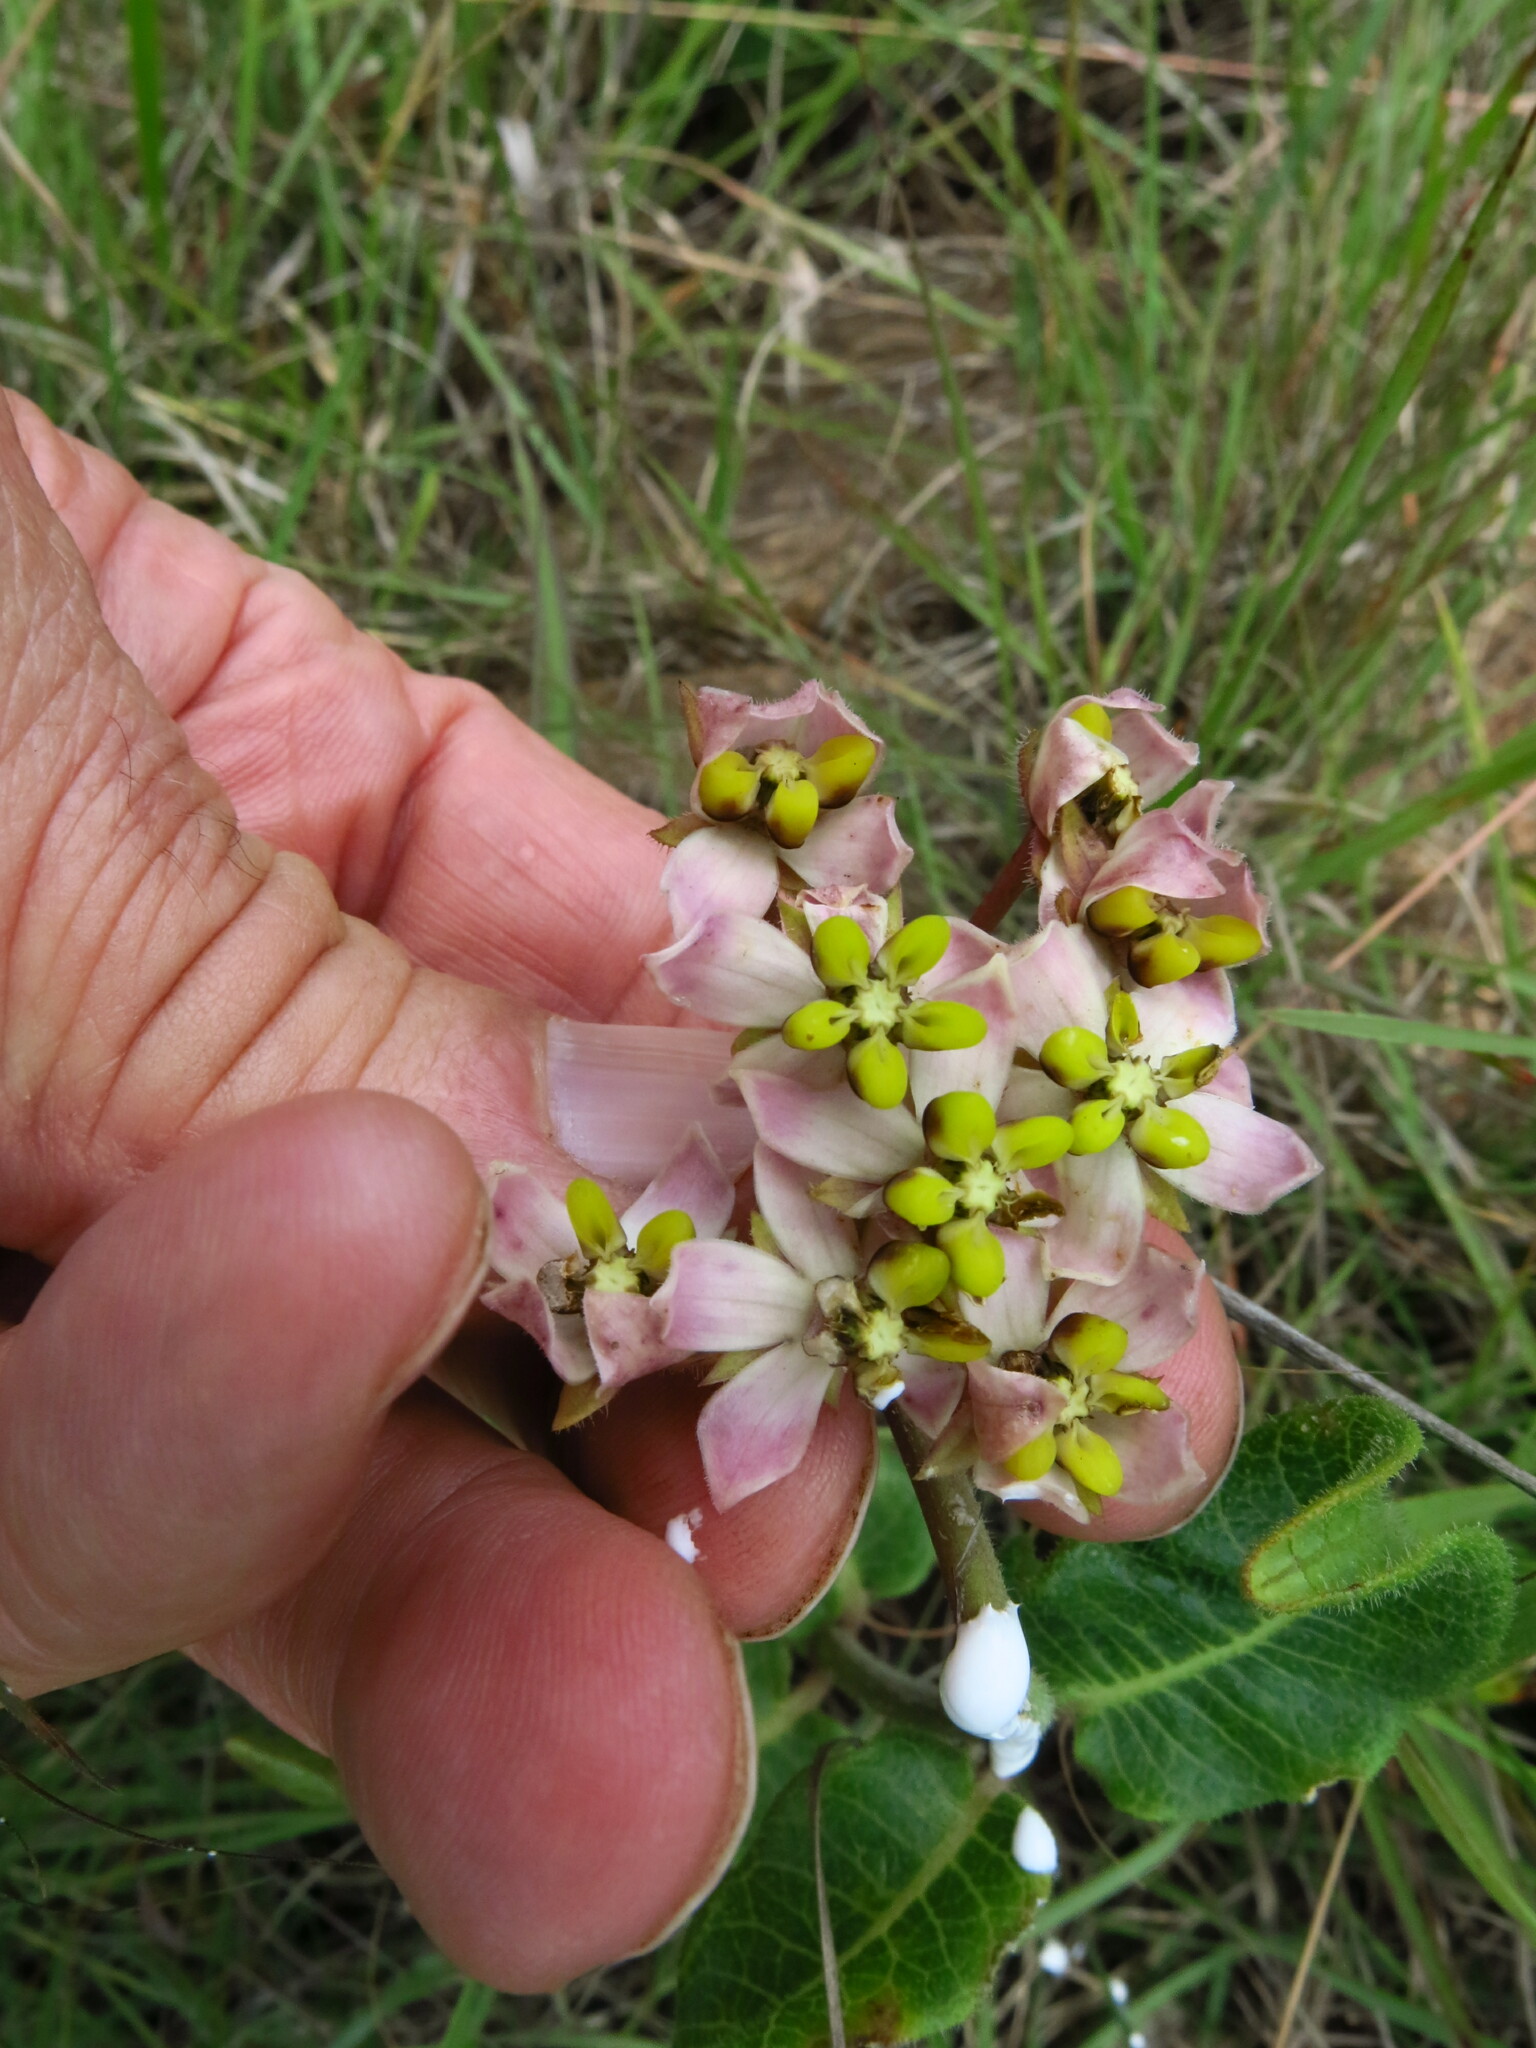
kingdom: Plantae
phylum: Tracheophyta
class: Magnoliopsida
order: Gentianales
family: Apocynaceae
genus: Asclepias
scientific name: Asclepias albens
